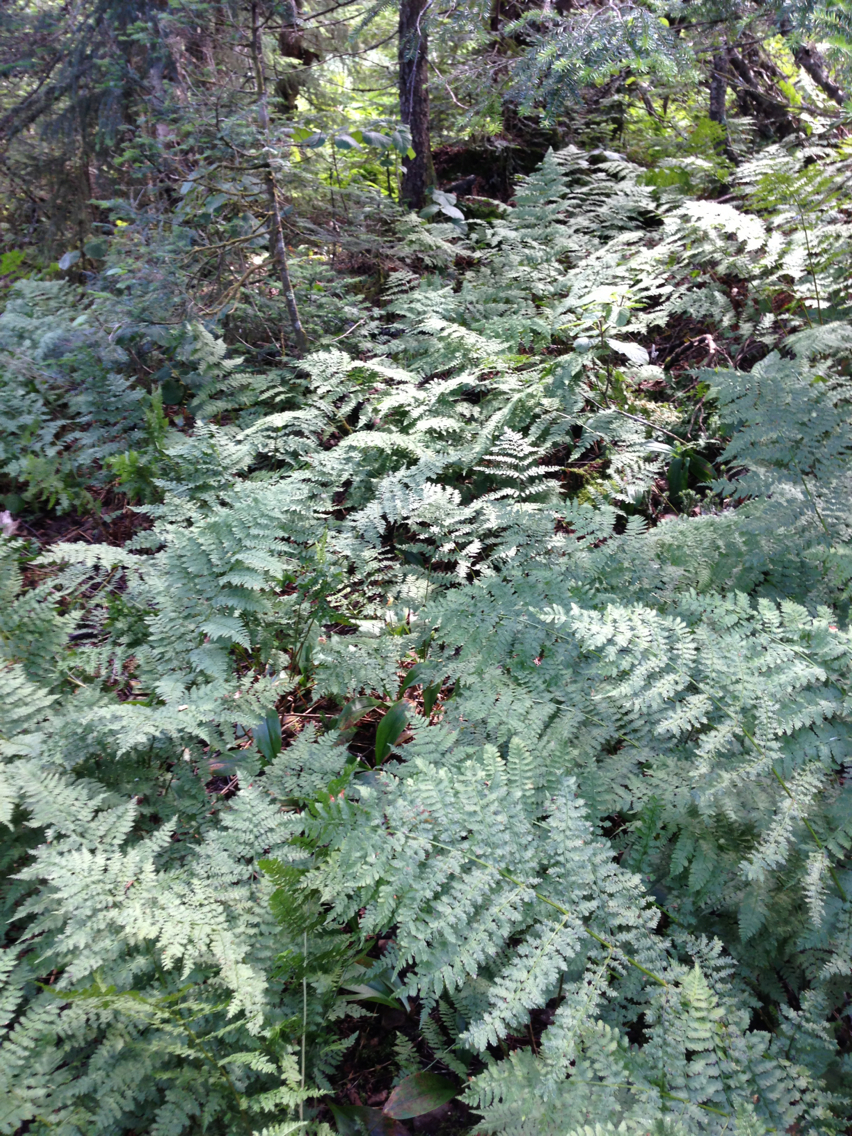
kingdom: Plantae
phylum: Tracheophyta
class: Polypodiopsida
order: Polypodiales
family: Dryopteridaceae
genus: Dryopteris
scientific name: Dryopteris intermedia
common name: Evergreen wood fern
